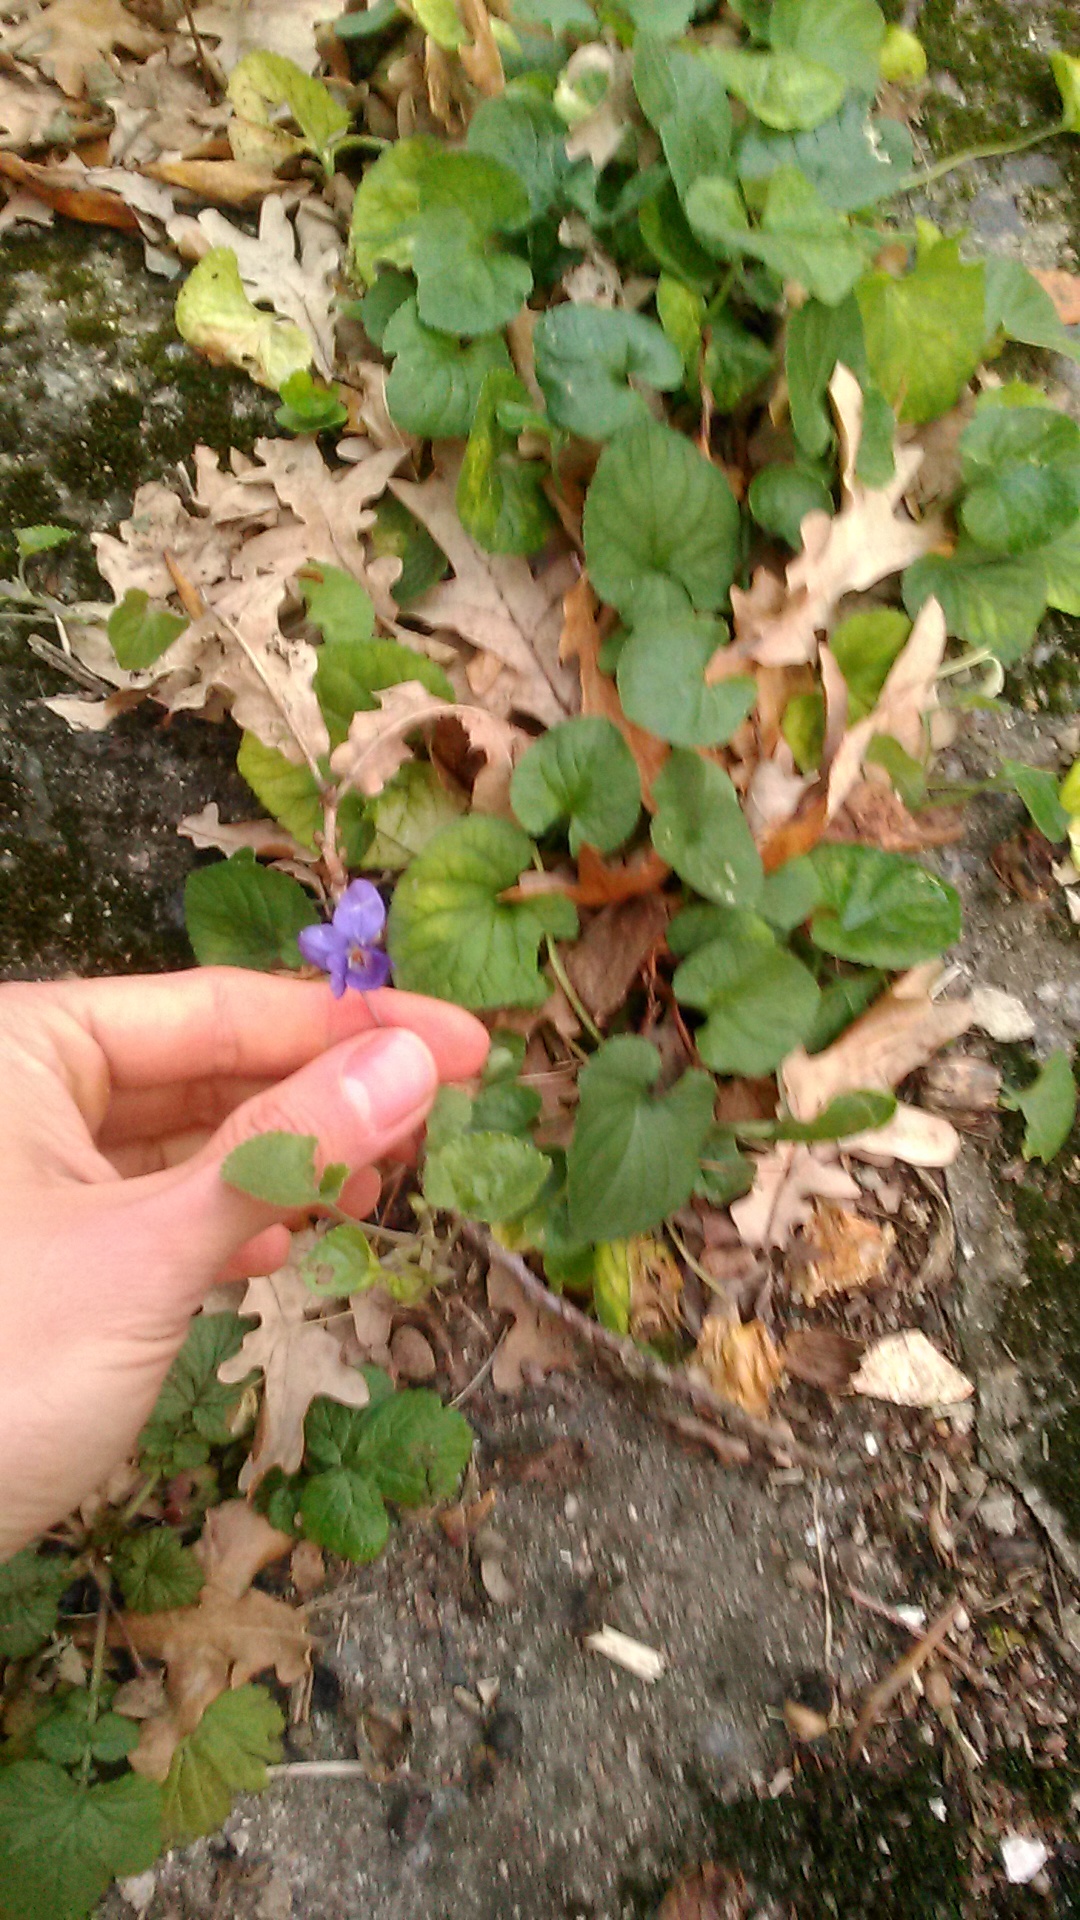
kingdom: Plantae
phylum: Tracheophyta
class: Magnoliopsida
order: Malpighiales
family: Violaceae
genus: Viola
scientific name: Viola odorata
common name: Sweet violet
